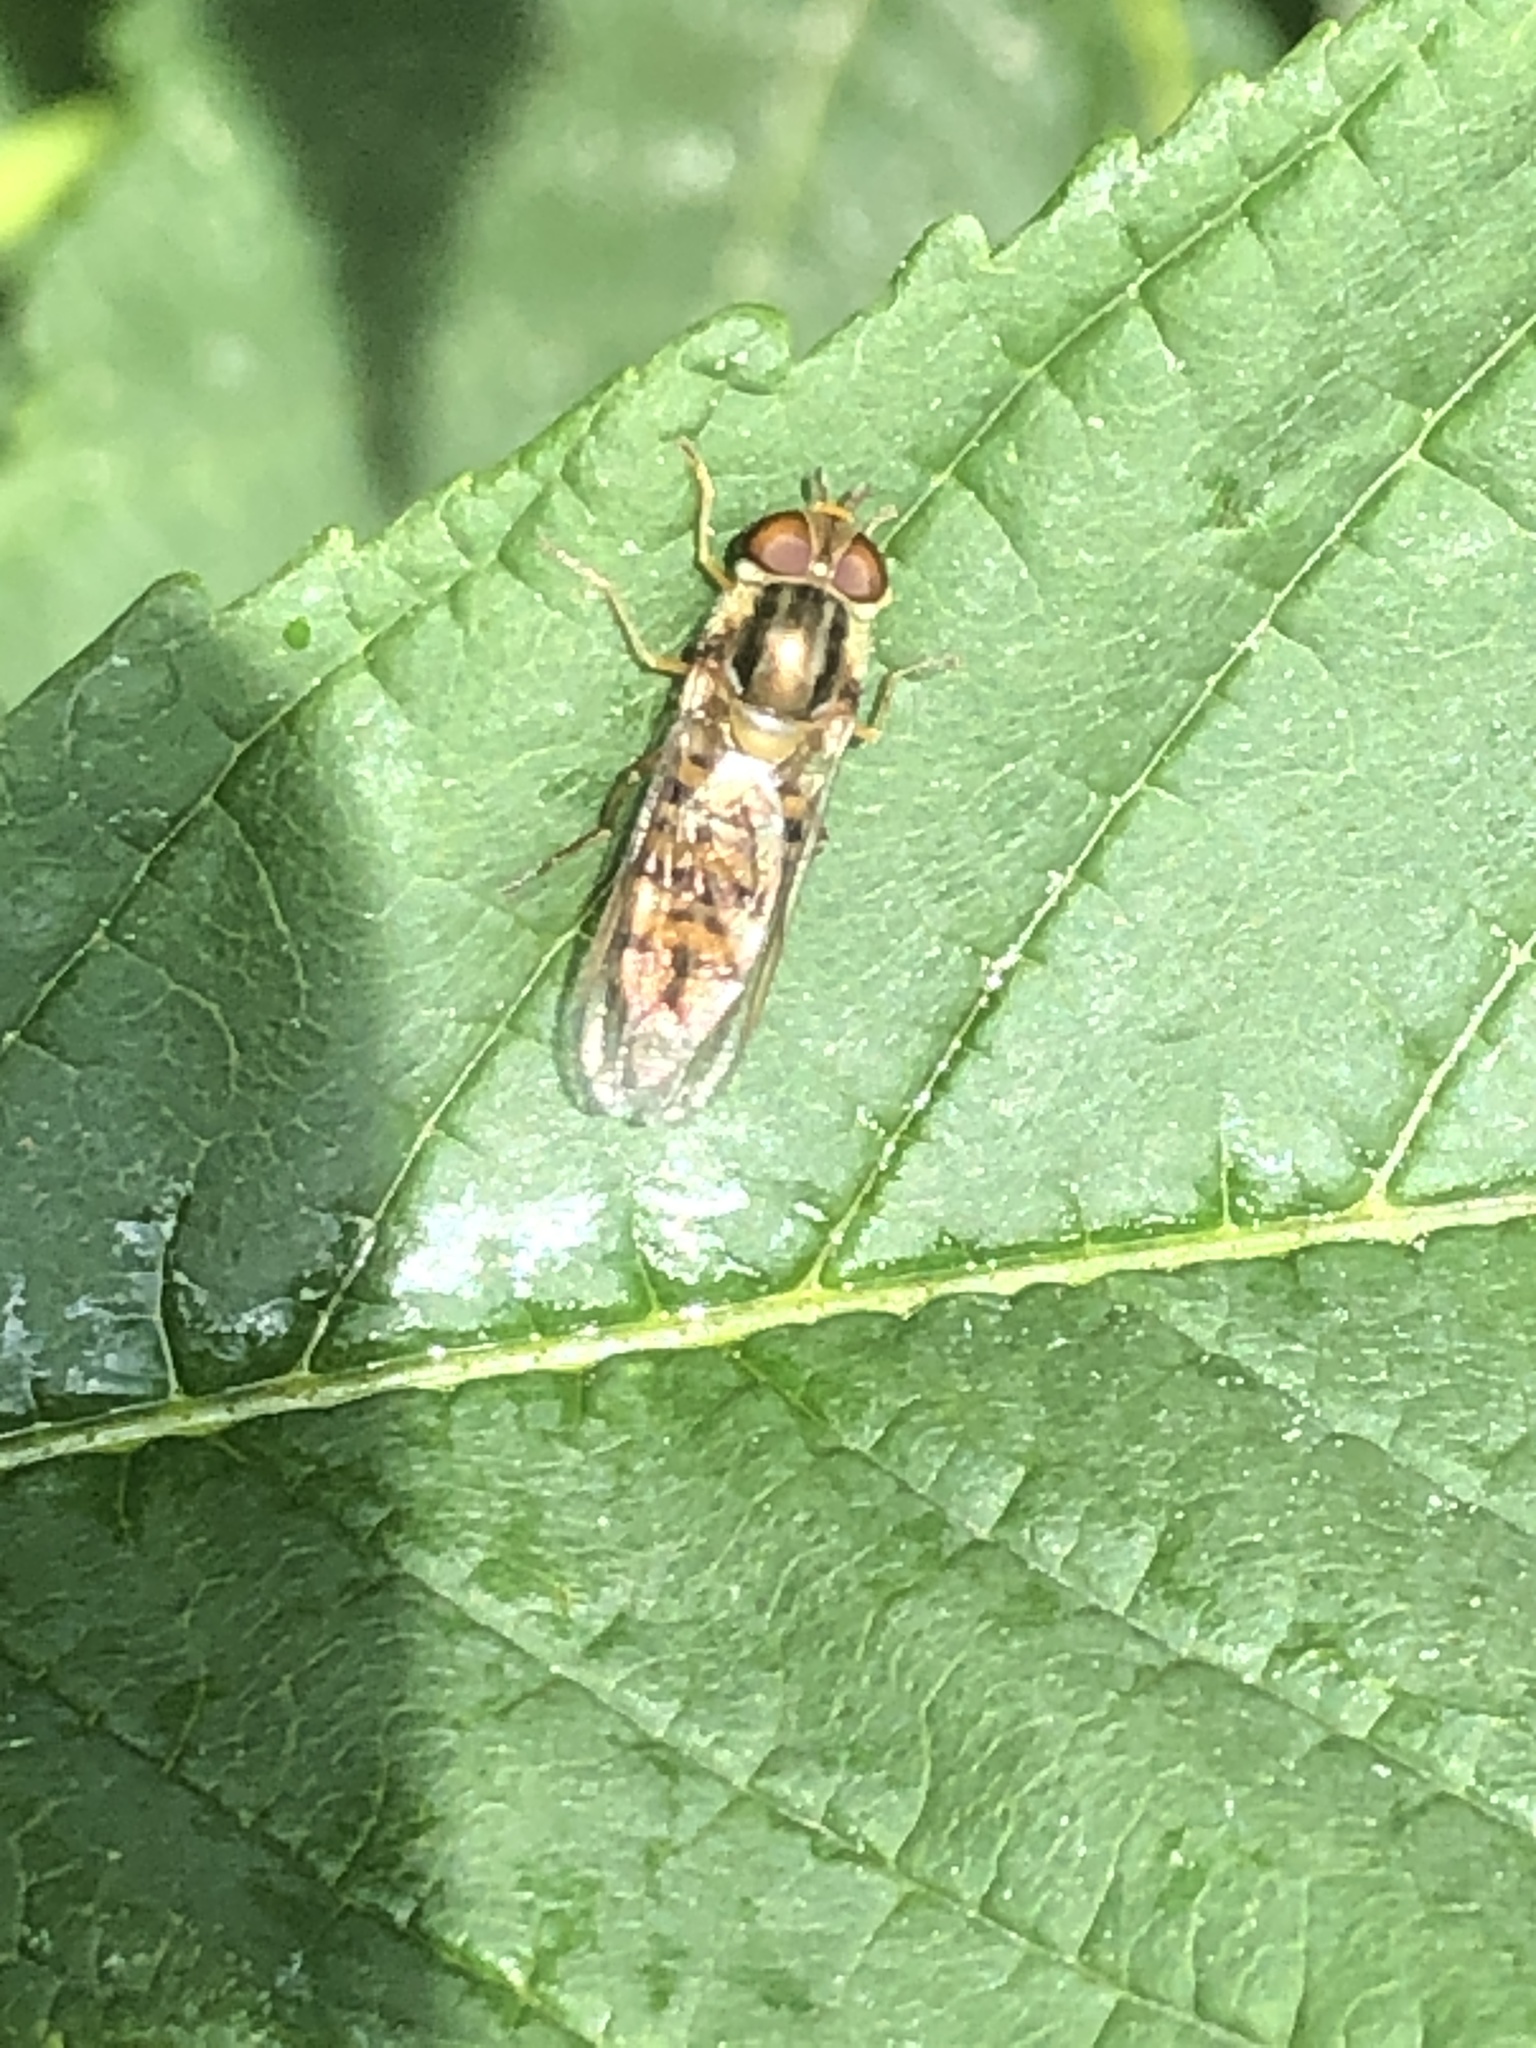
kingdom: Animalia
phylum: Arthropoda
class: Insecta
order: Diptera
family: Syrphidae
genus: Episyrphus
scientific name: Episyrphus balteatus
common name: Marmalade hoverfly
